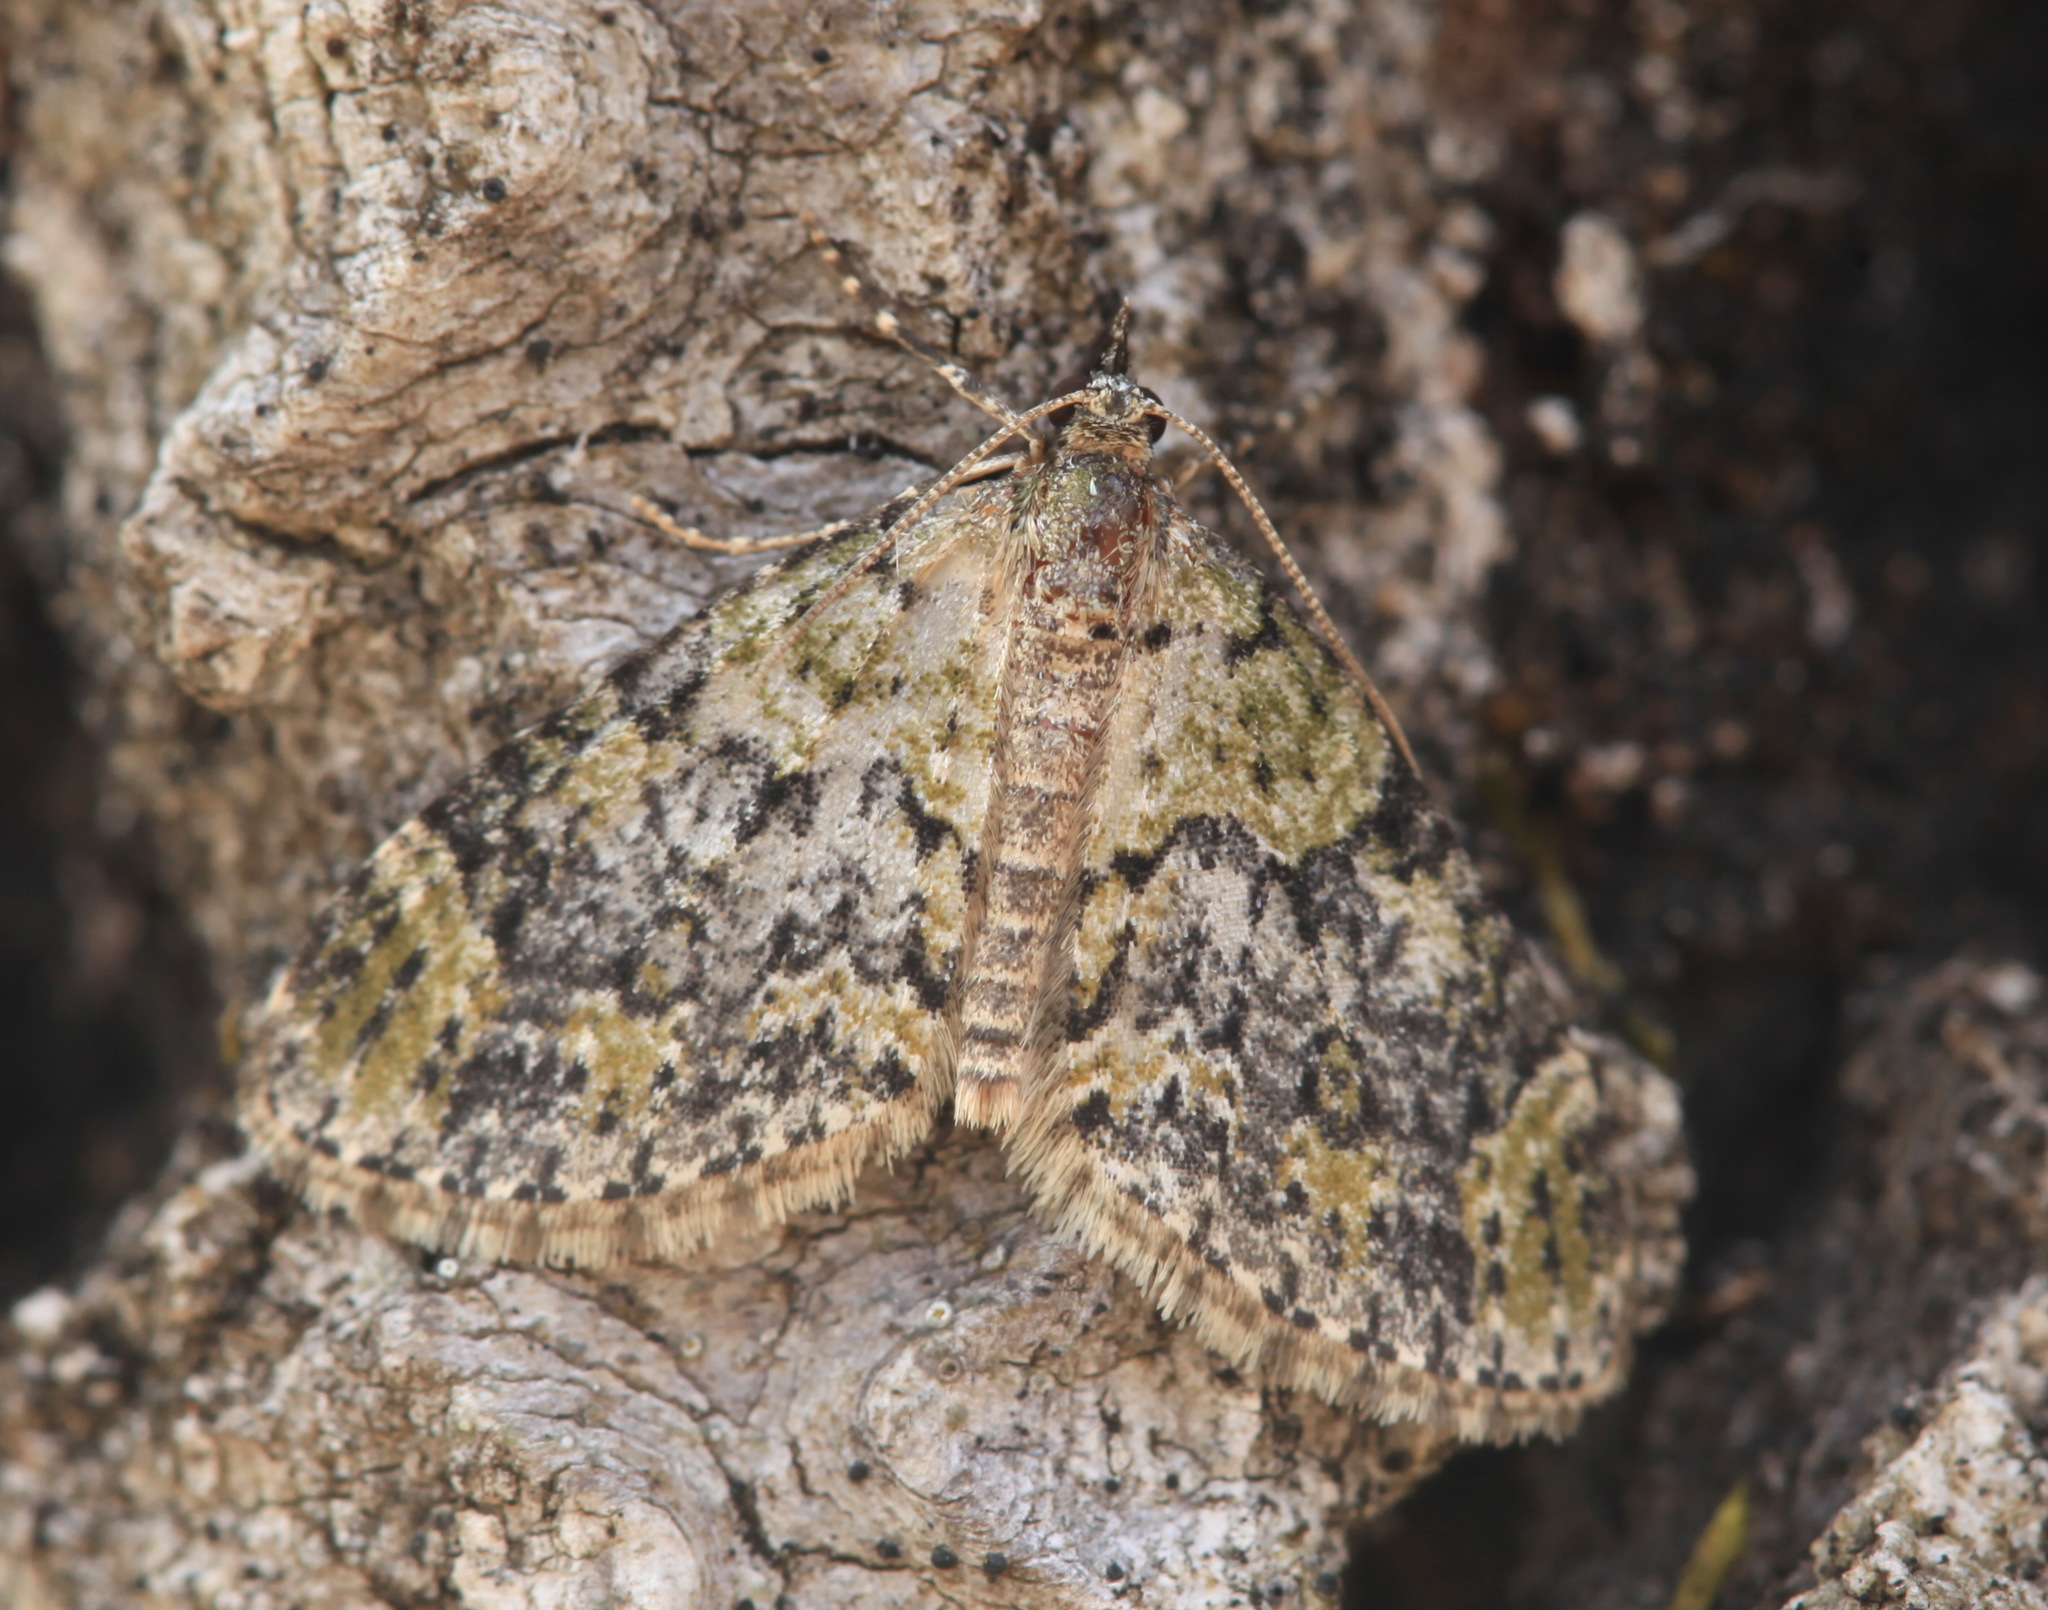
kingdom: Animalia
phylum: Arthropoda
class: Insecta
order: Lepidoptera
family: Geometridae
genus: Acasis
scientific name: Acasis viretata
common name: Yellow-barred brindle
